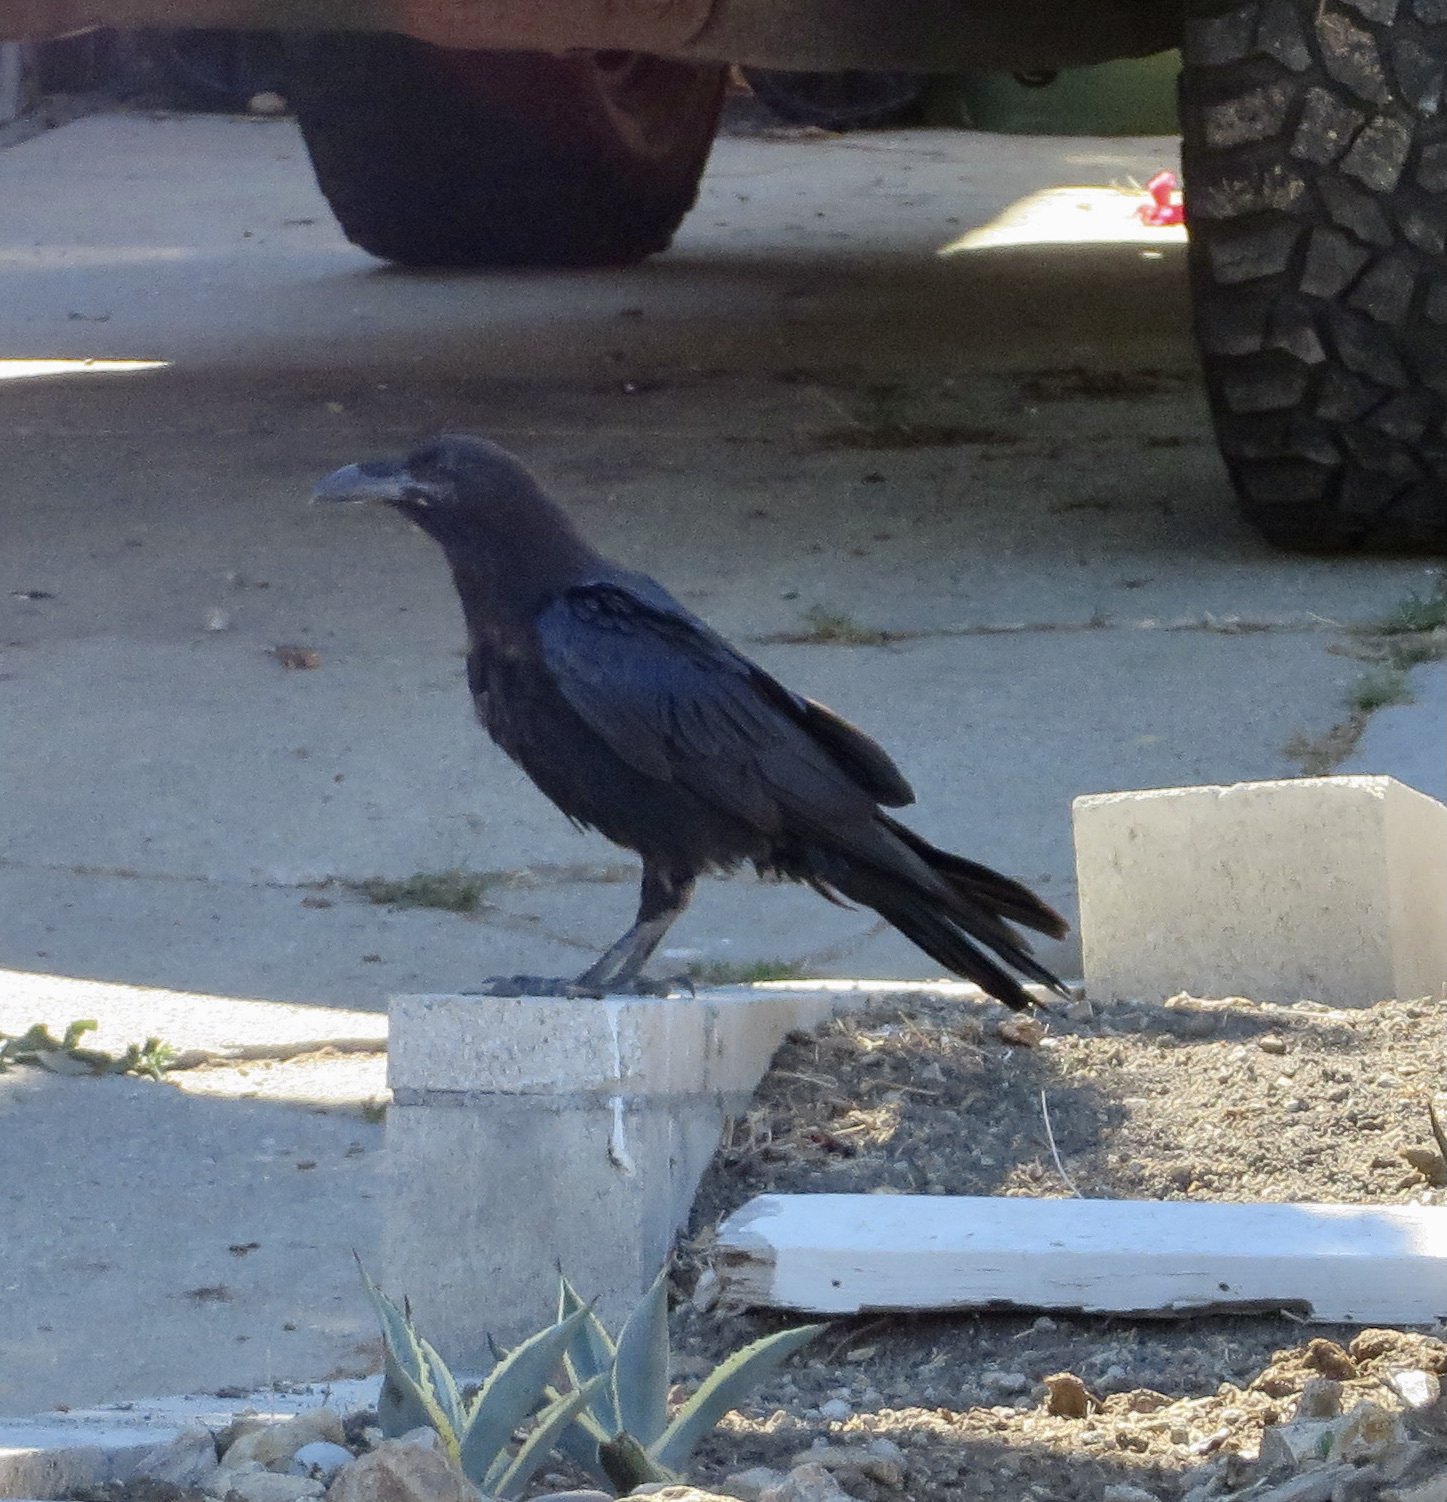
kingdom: Animalia
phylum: Chordata
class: Aves
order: Passeriformes
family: Corvidae
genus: Corvus
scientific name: Corvus corax
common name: Common raven
